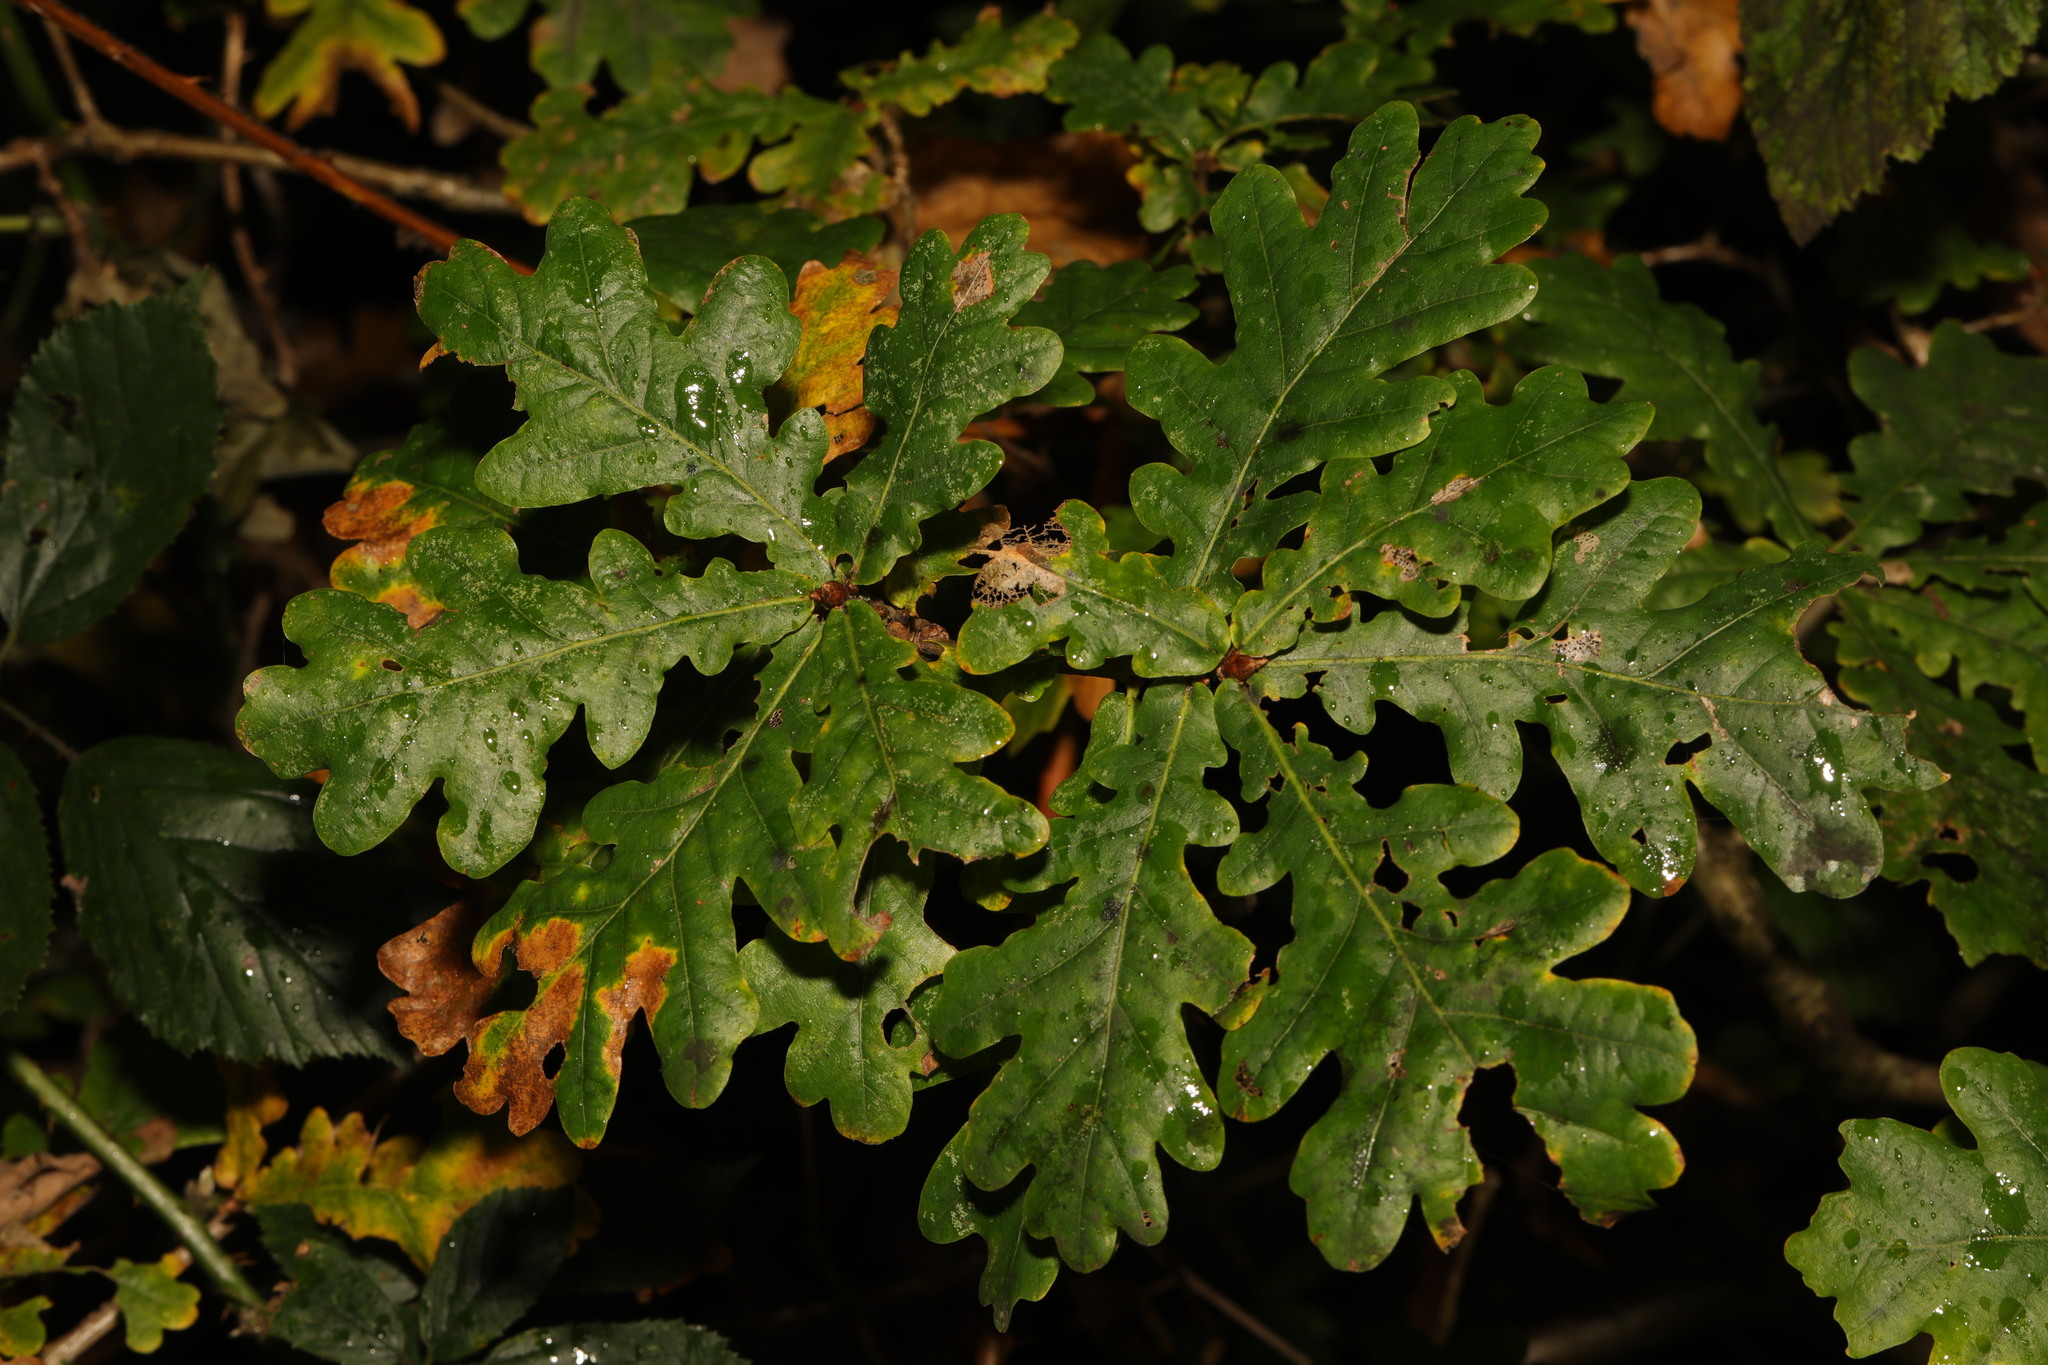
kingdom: Plantae
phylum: Tracheophyta
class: Magnoliopsida
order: Fagales
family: Fagaceae
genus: Quercus
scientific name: Quercus robur
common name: Pedunculate oak
